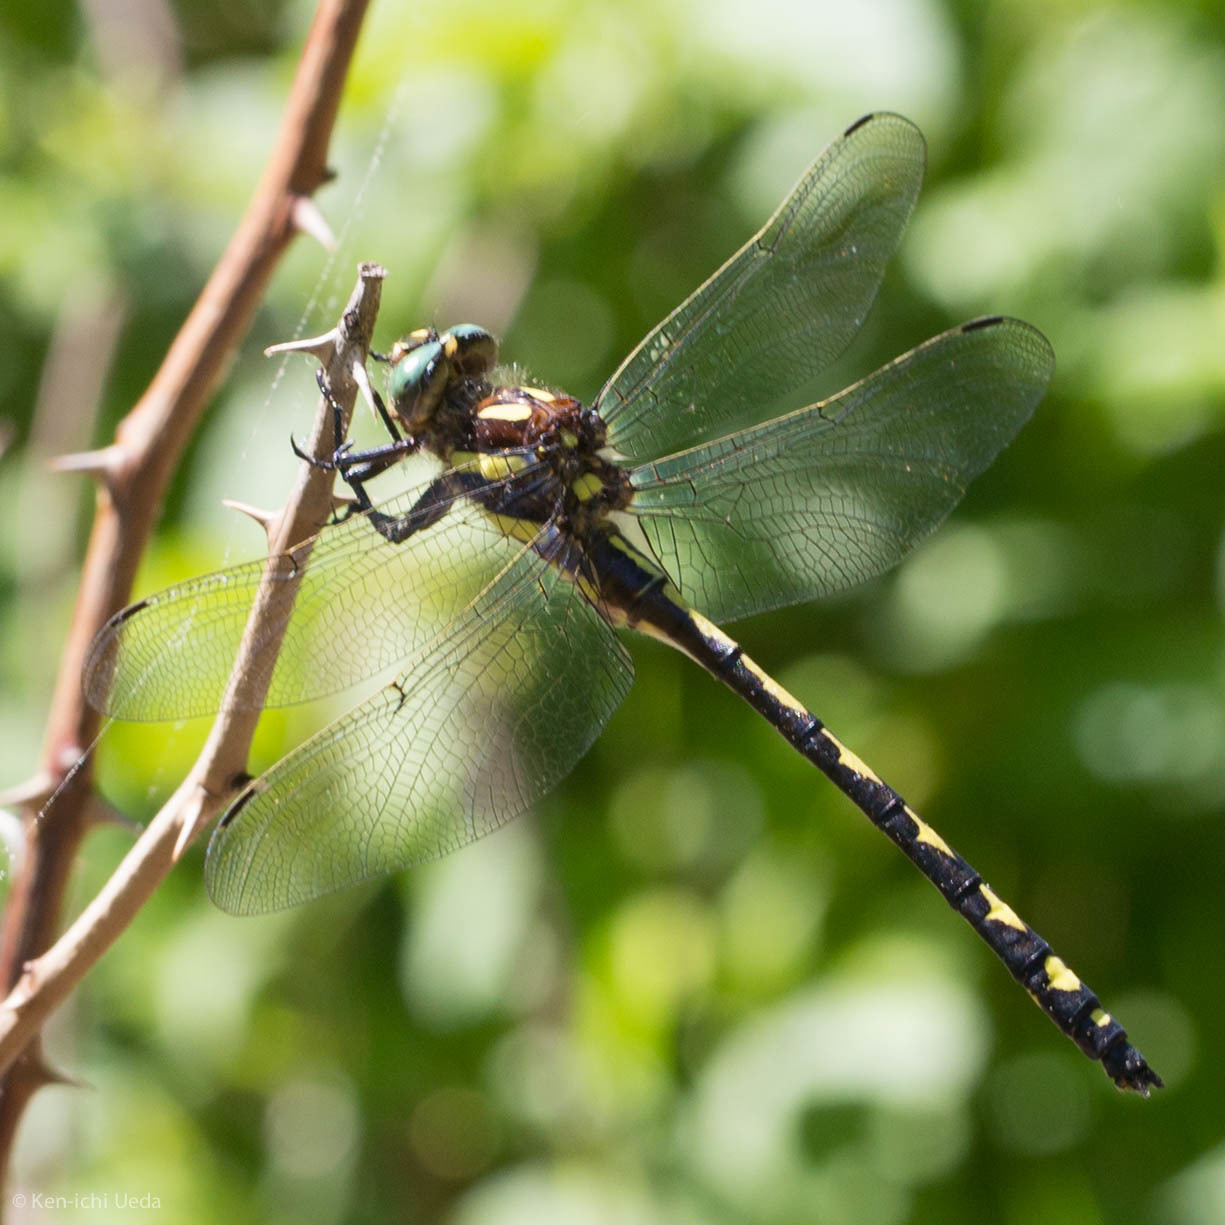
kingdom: Animalia
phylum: Arthropoda
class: Insecta
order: Odonata
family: Cordulegastridae
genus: Cordulegaster
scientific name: Cordulegaster obliqua
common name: Arrowhead spiketail
